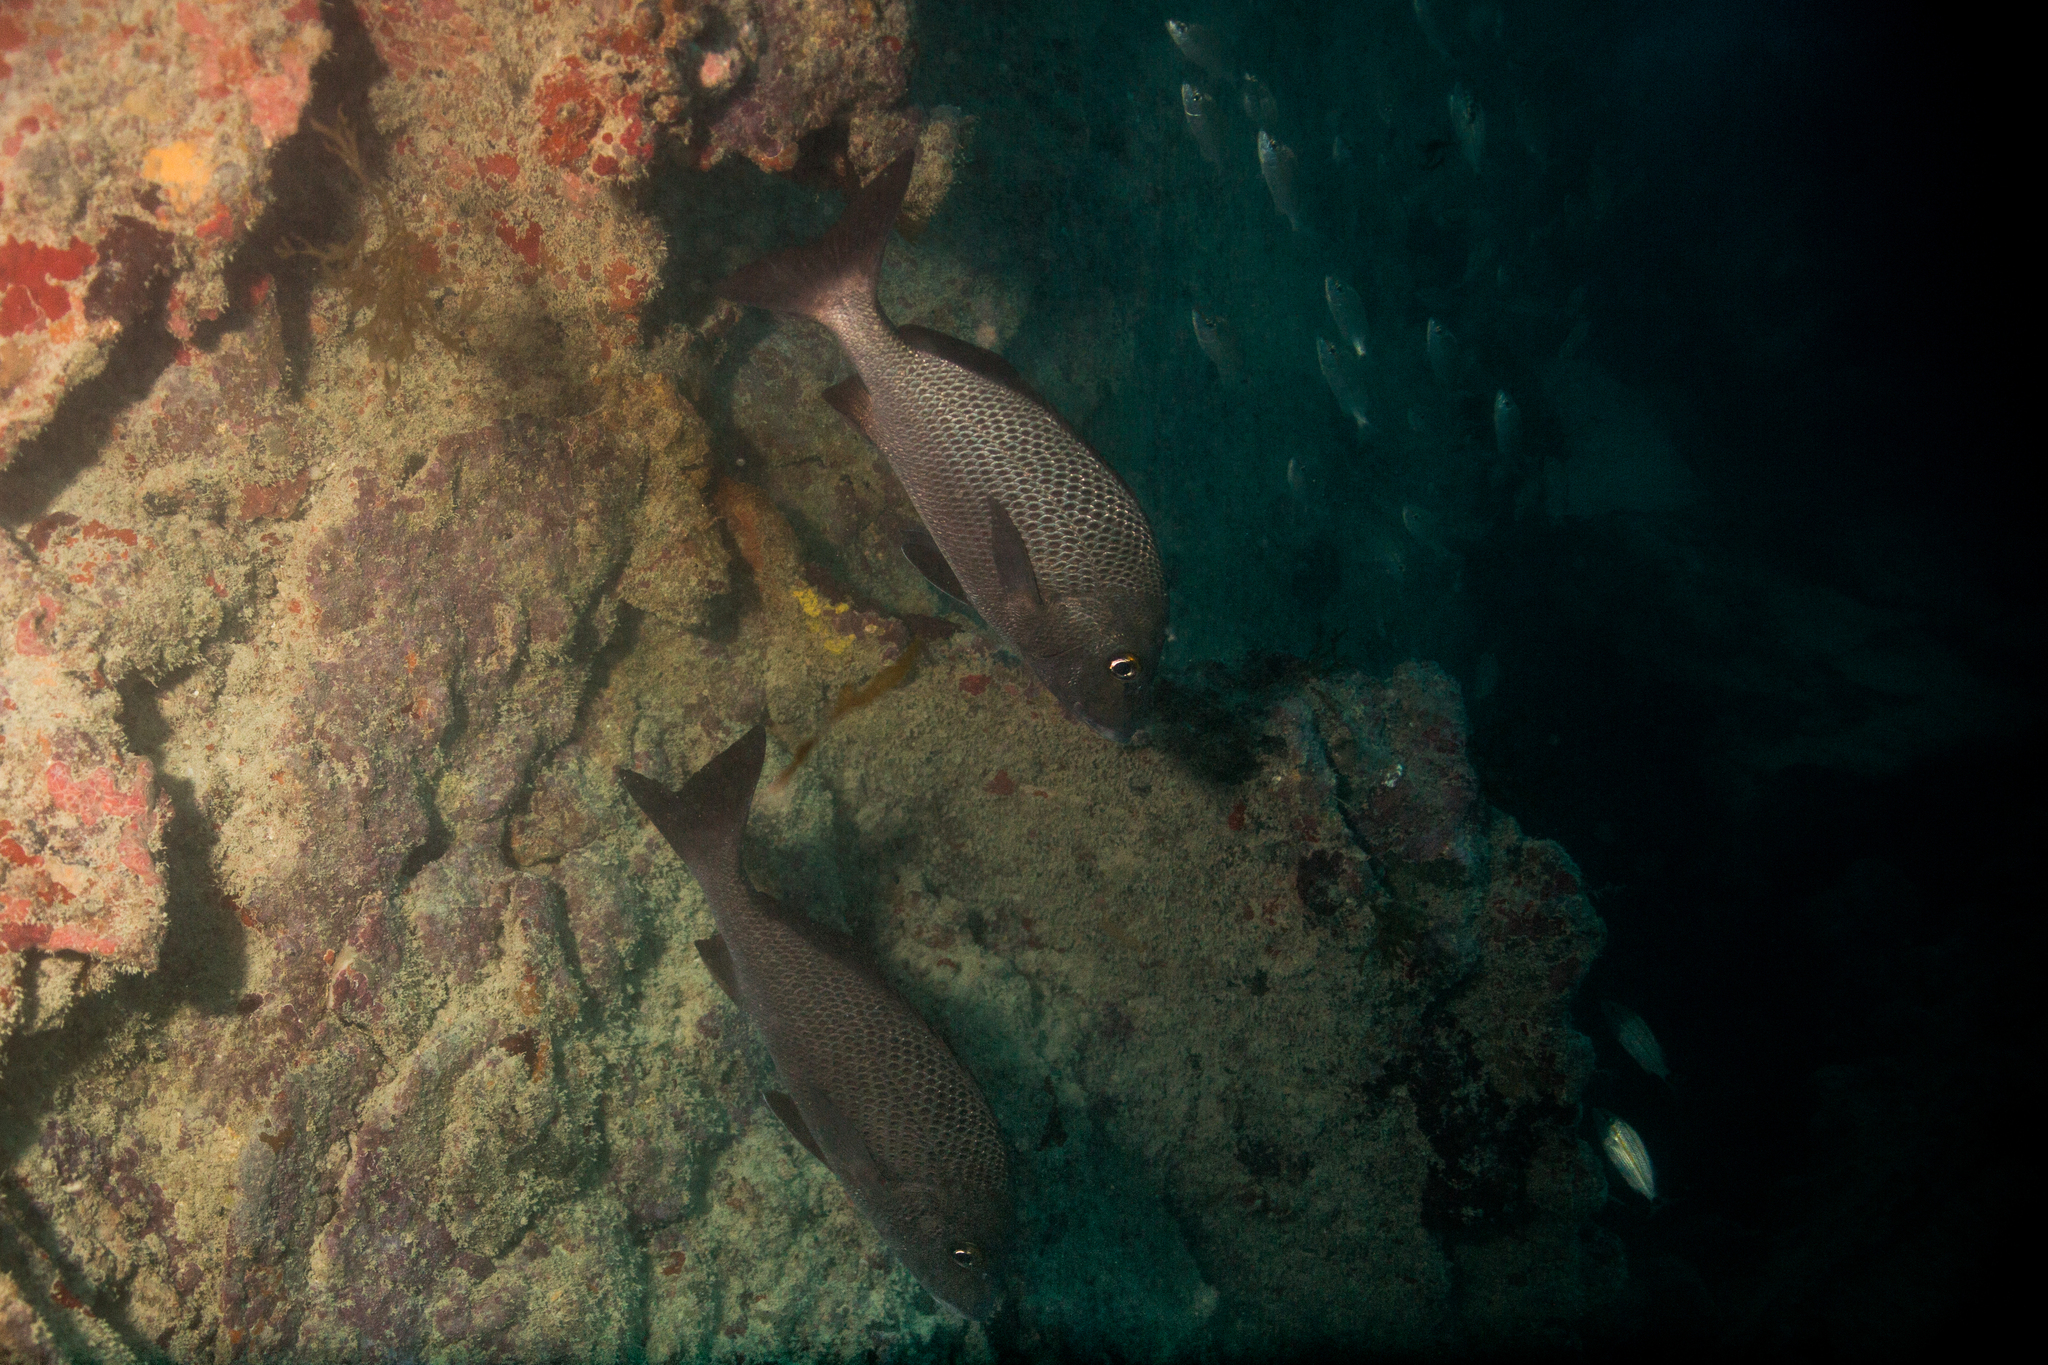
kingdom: Animalia
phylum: Chordata
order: Perciformes
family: Haemulidae
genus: Haemulon
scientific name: Haemulon parra
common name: Sailor's choice
